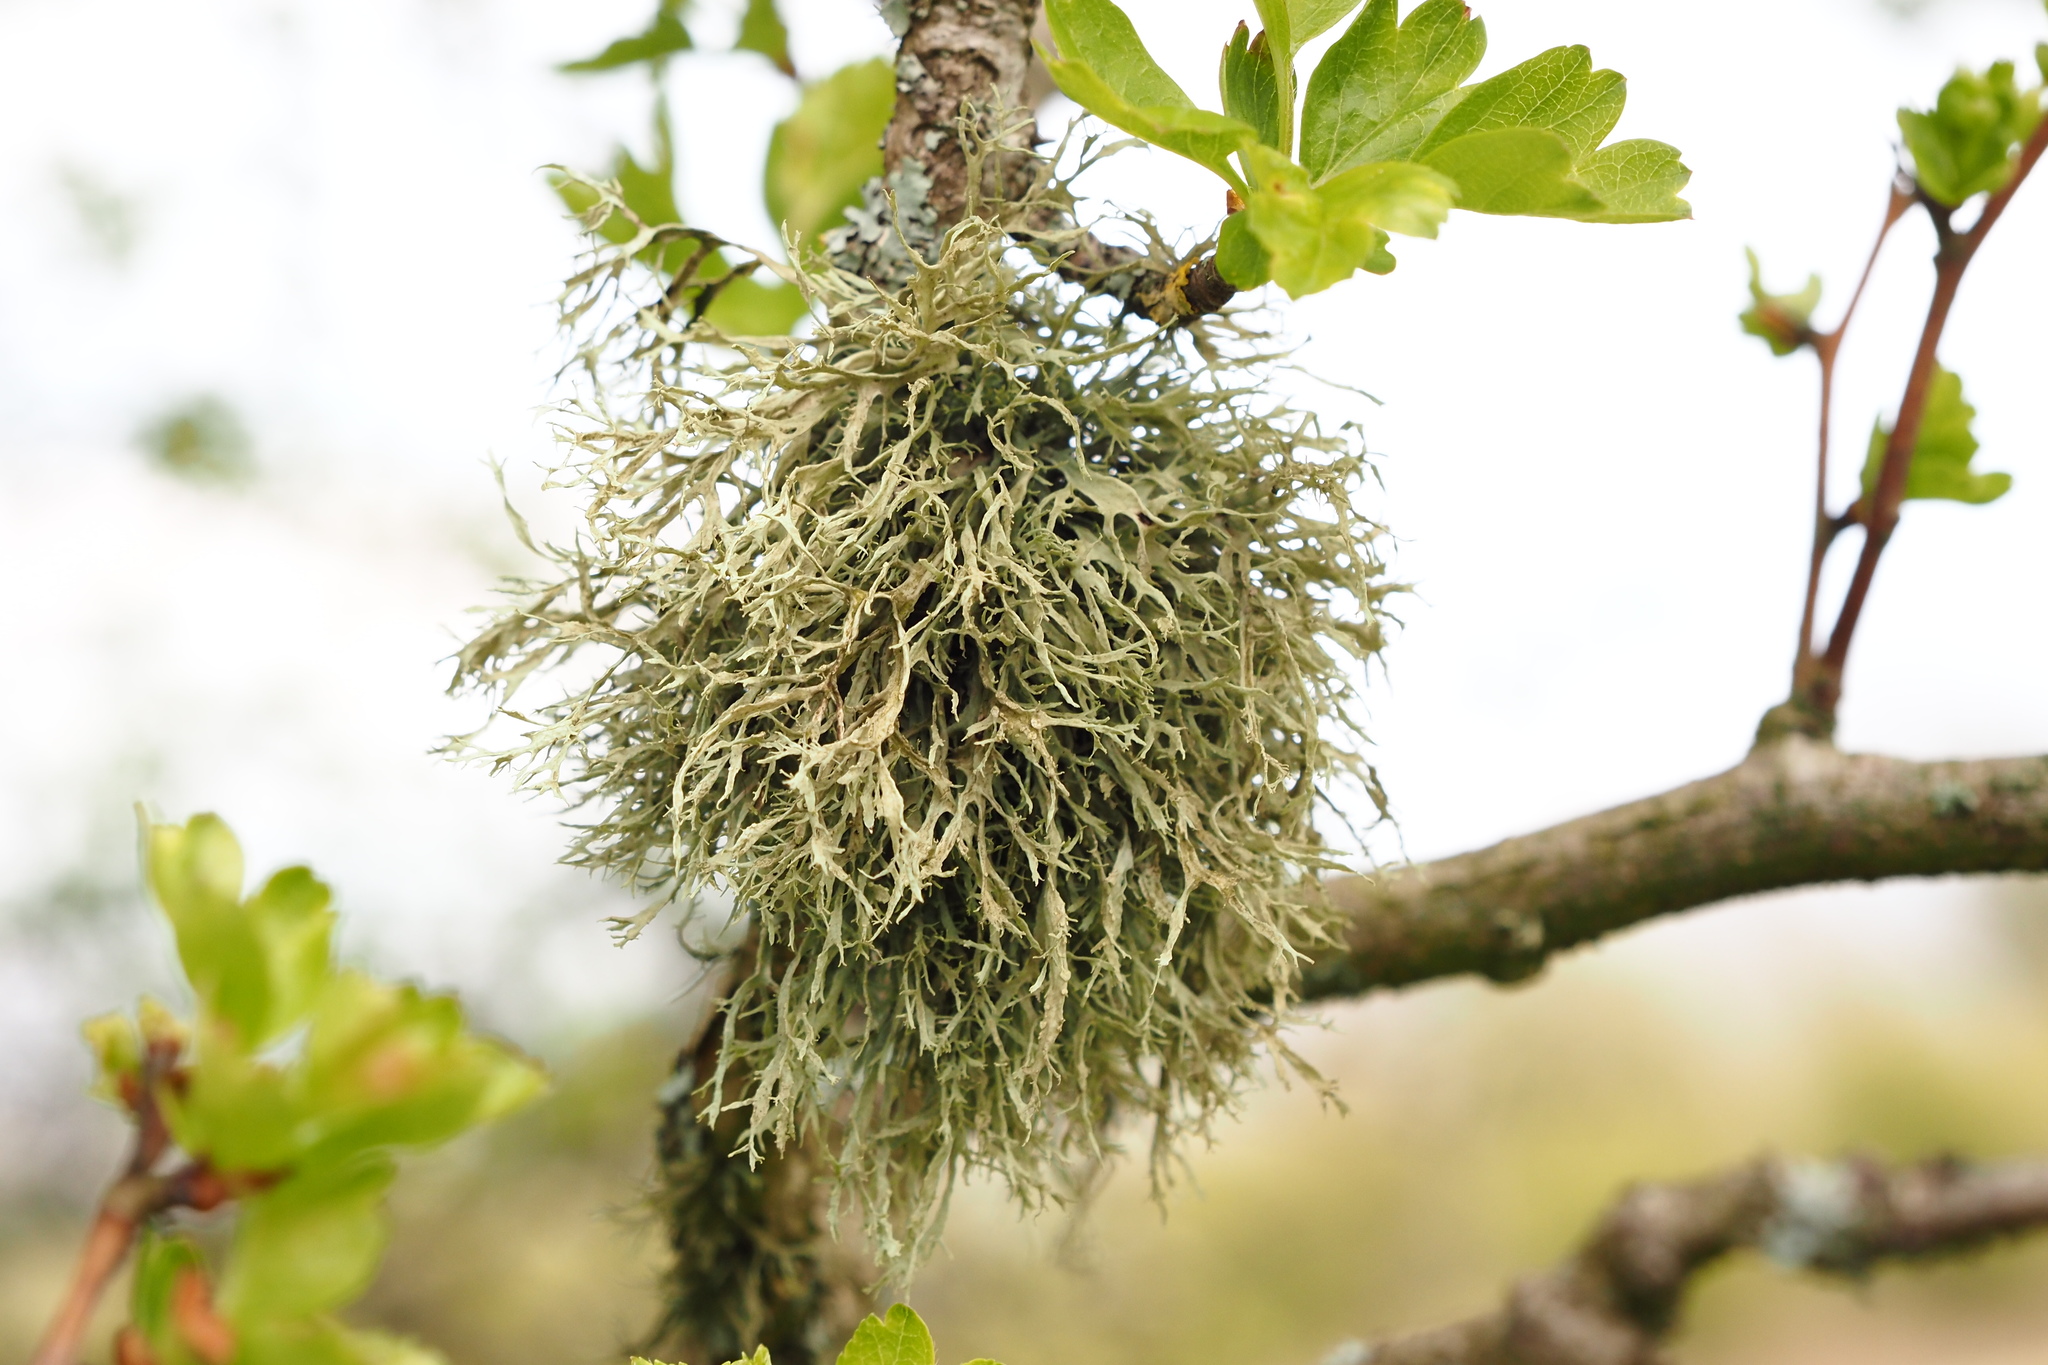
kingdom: Fungi
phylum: Ascomycota
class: Lecanoromycetes
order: Lecanorales
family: Ramalinaceae
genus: Ramalina
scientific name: Ramalina farinacea
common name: Farinose cartilage lichen
